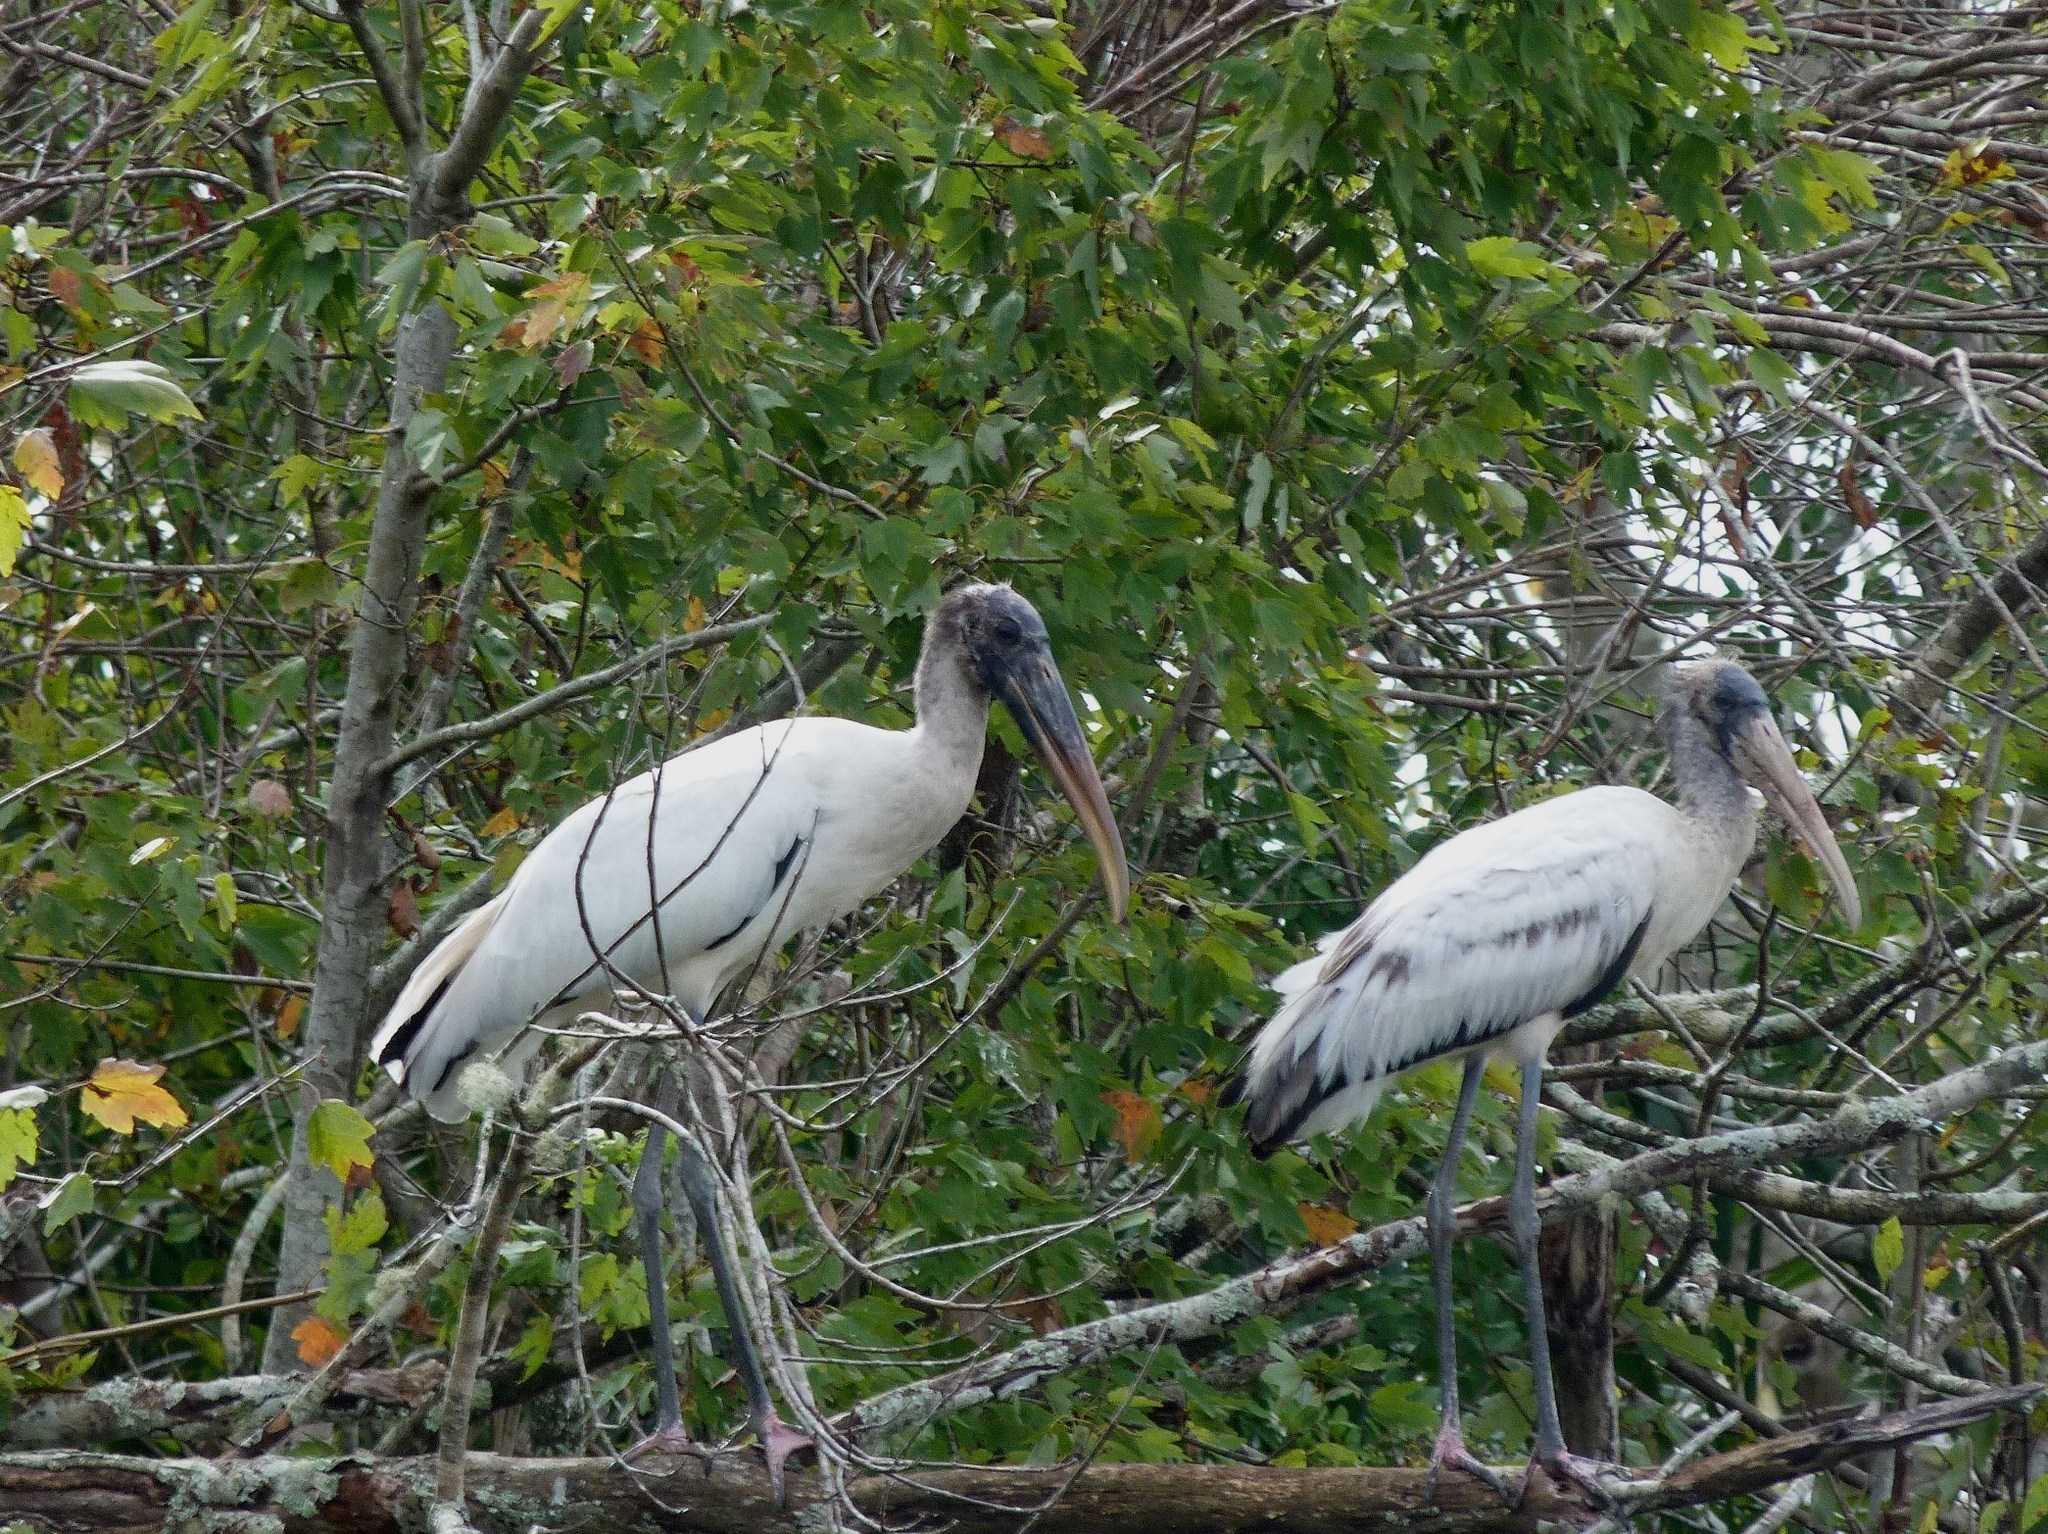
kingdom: Animalia
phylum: Chordata
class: Aves
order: Ciconiiformes
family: Ciconiidae
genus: Mycteria
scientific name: Mycteria americana
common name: Wood stork
